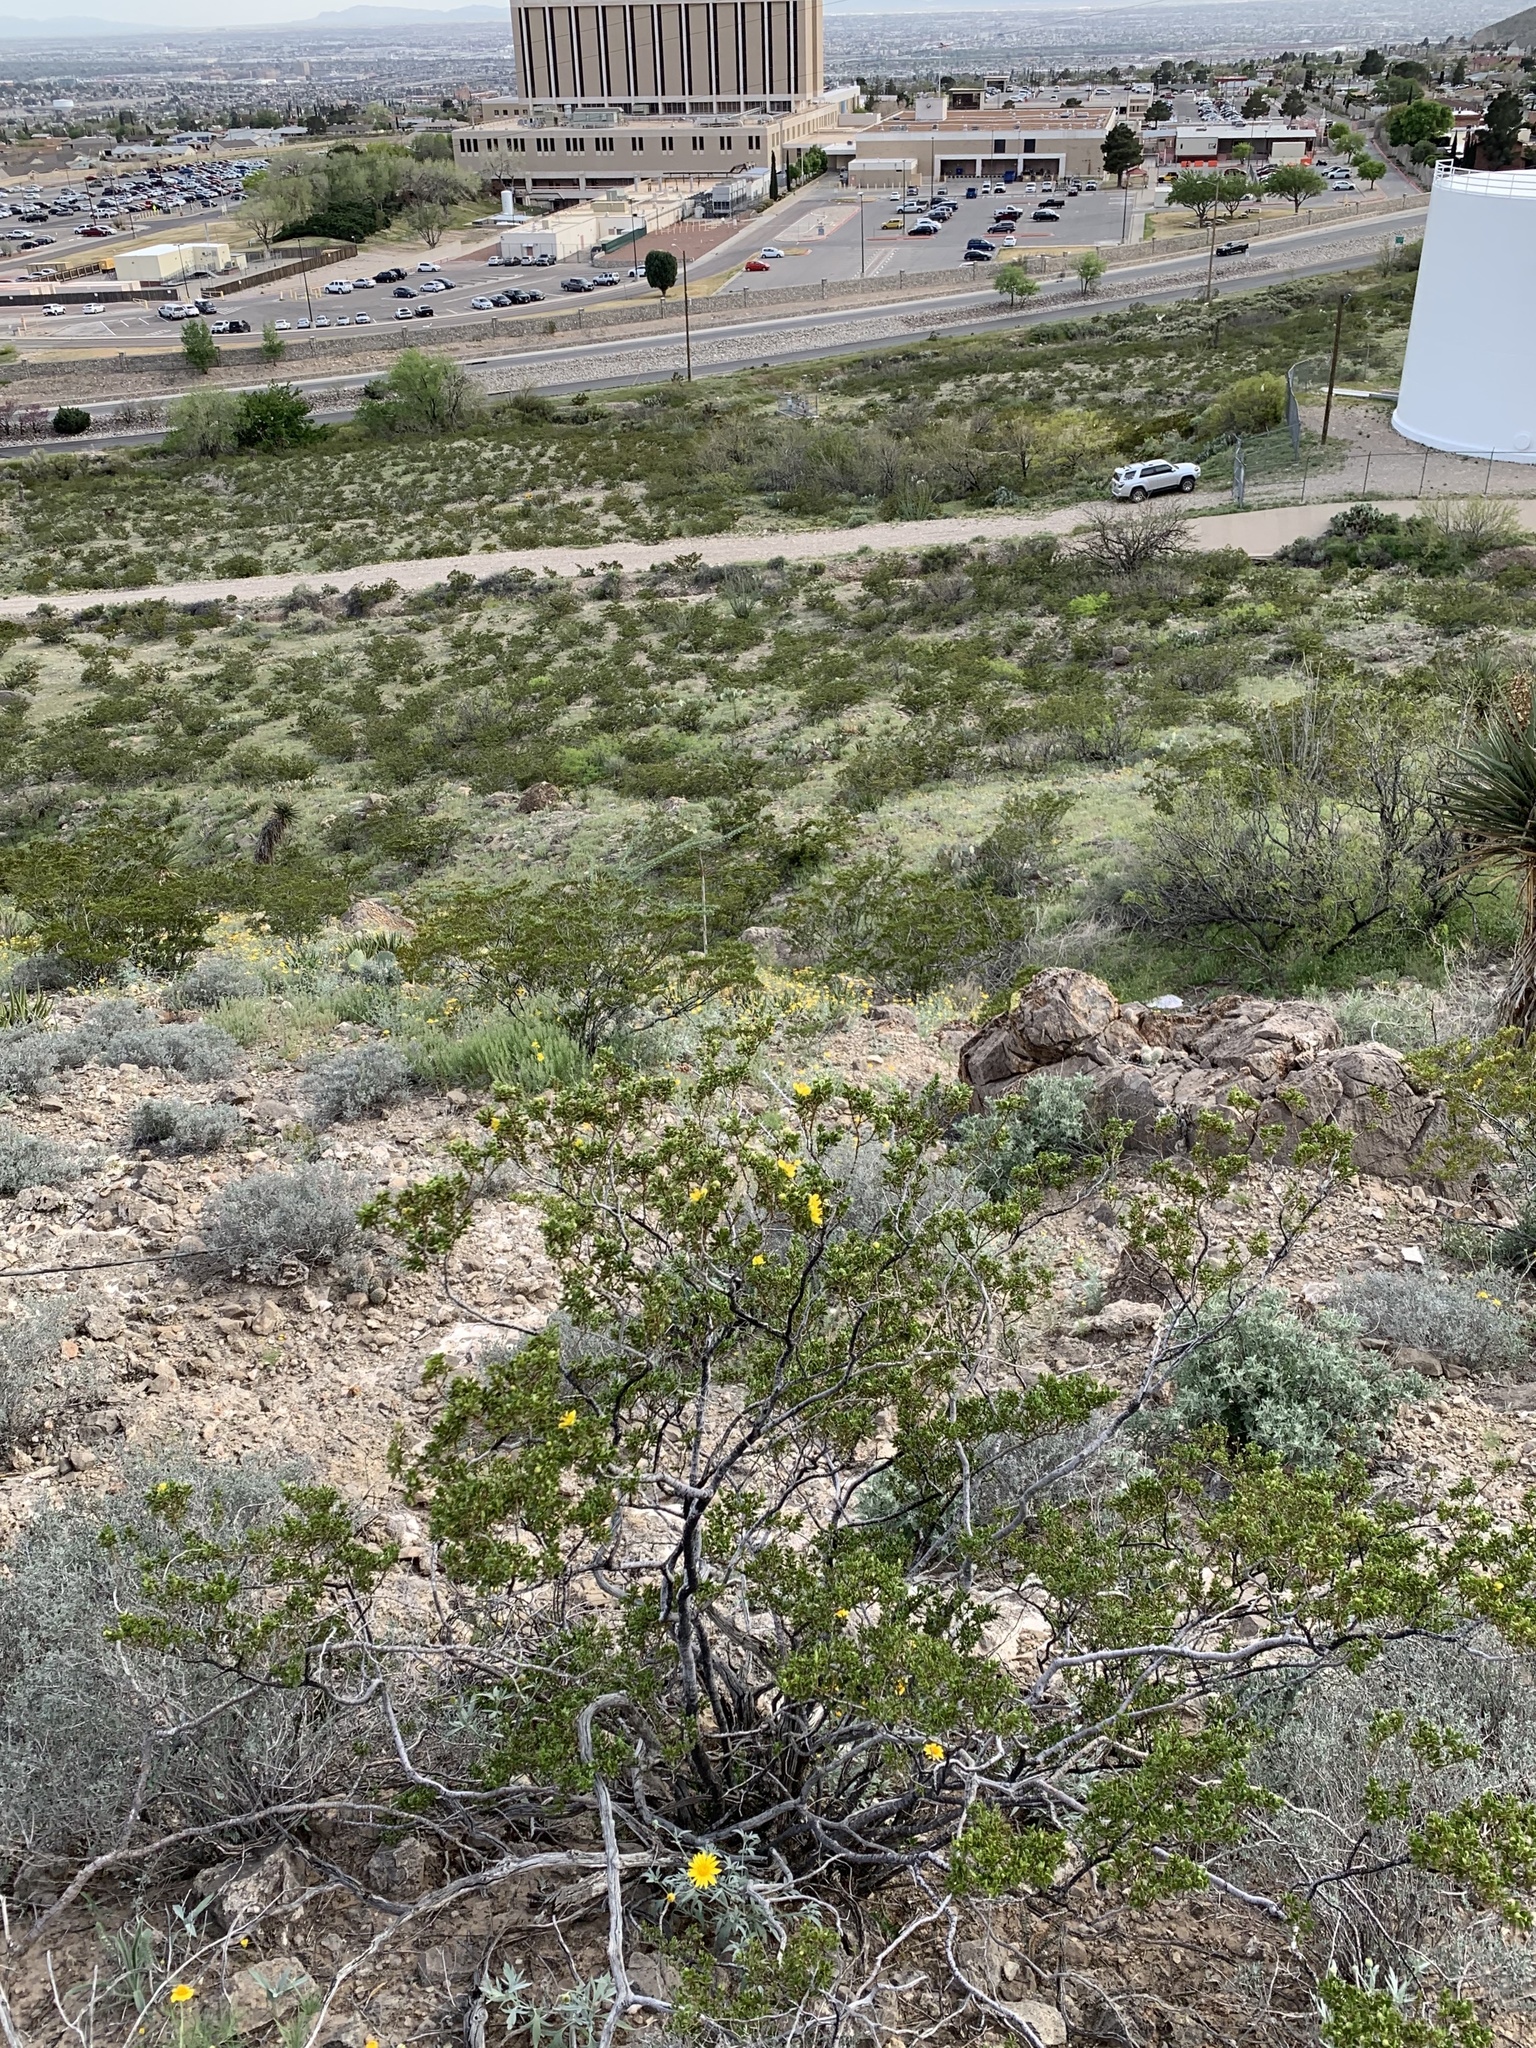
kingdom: Plantae
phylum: Tracheophyta
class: Magnoliopsida
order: Zygophyllales
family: Zygophyllaceae
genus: Larrea
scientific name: Larrea tridentata
